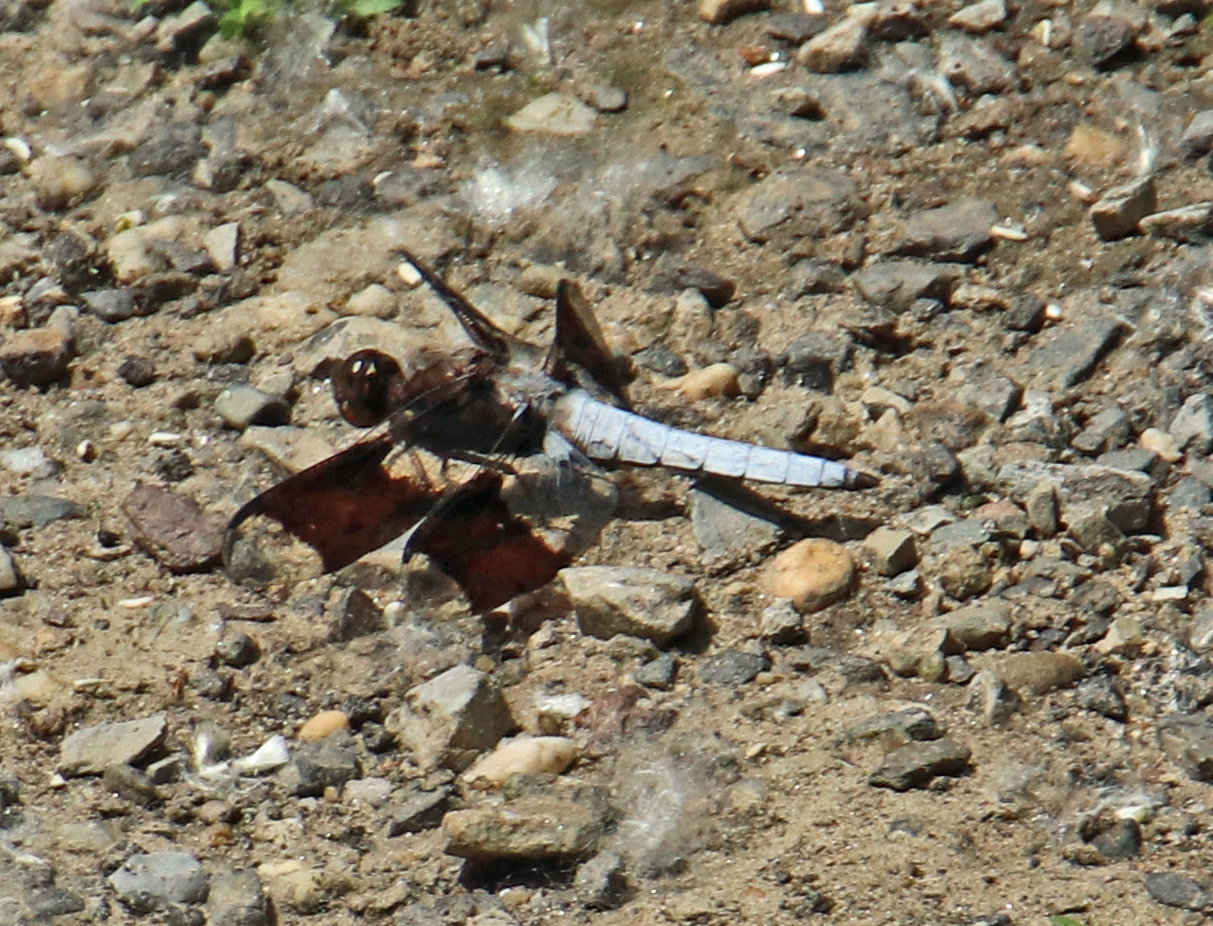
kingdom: Animalia
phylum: Arthropoda
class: Insecta
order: Odonata
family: Libellulidae
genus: Plathemis
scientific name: Plathemis lydia
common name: Common whitetail
